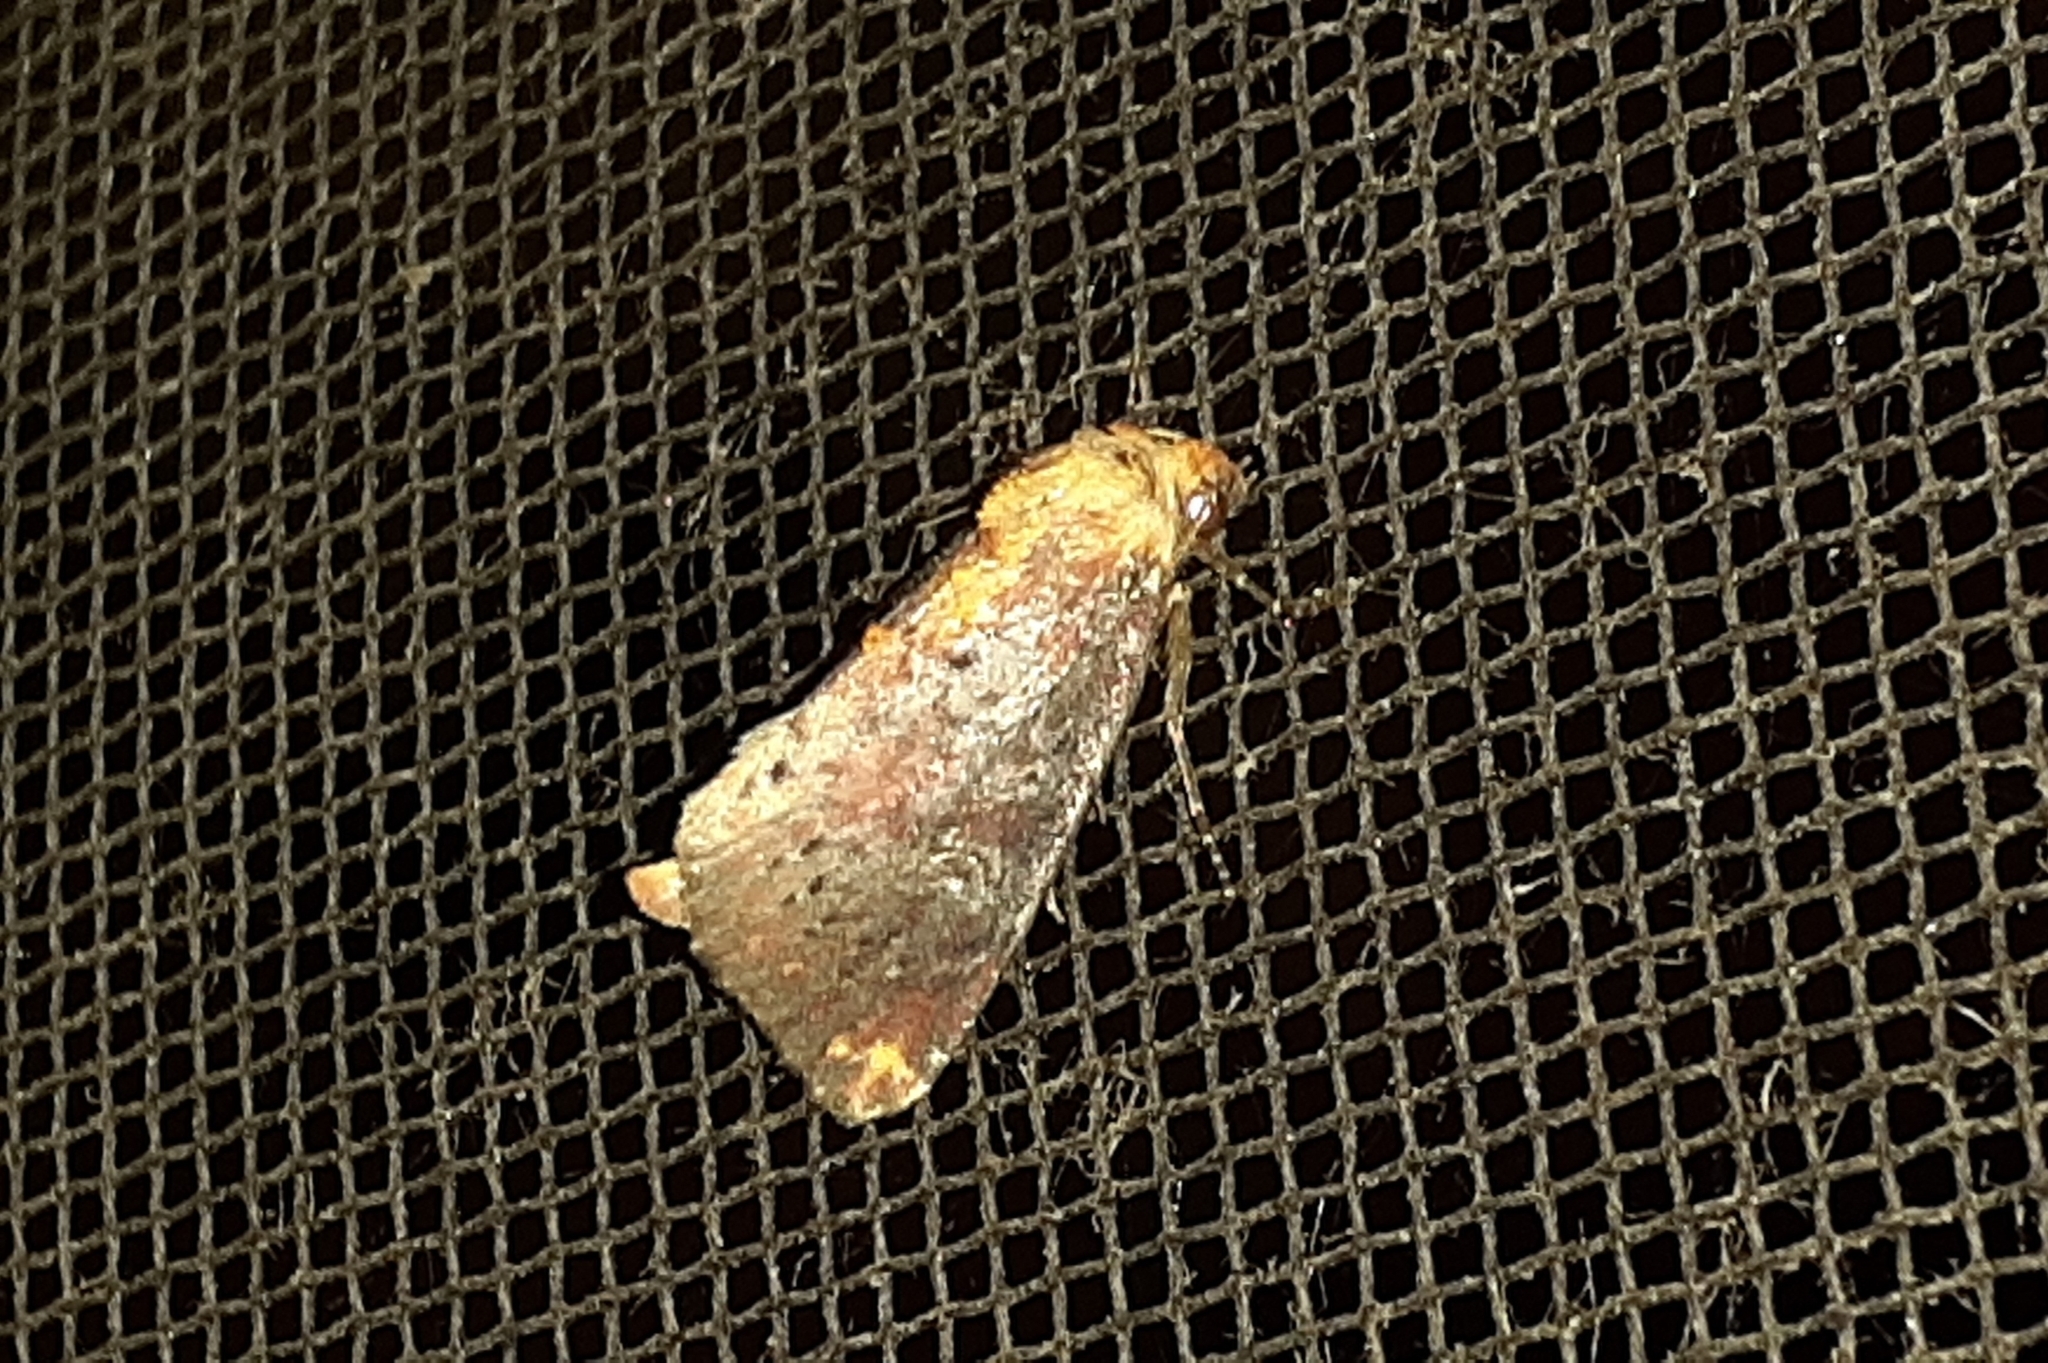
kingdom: Animalia
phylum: Arthropoda
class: Insecta
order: Lepidoptera
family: Noctuidae
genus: Achatodes
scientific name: Achatodes zeae
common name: Elder shoot borer
